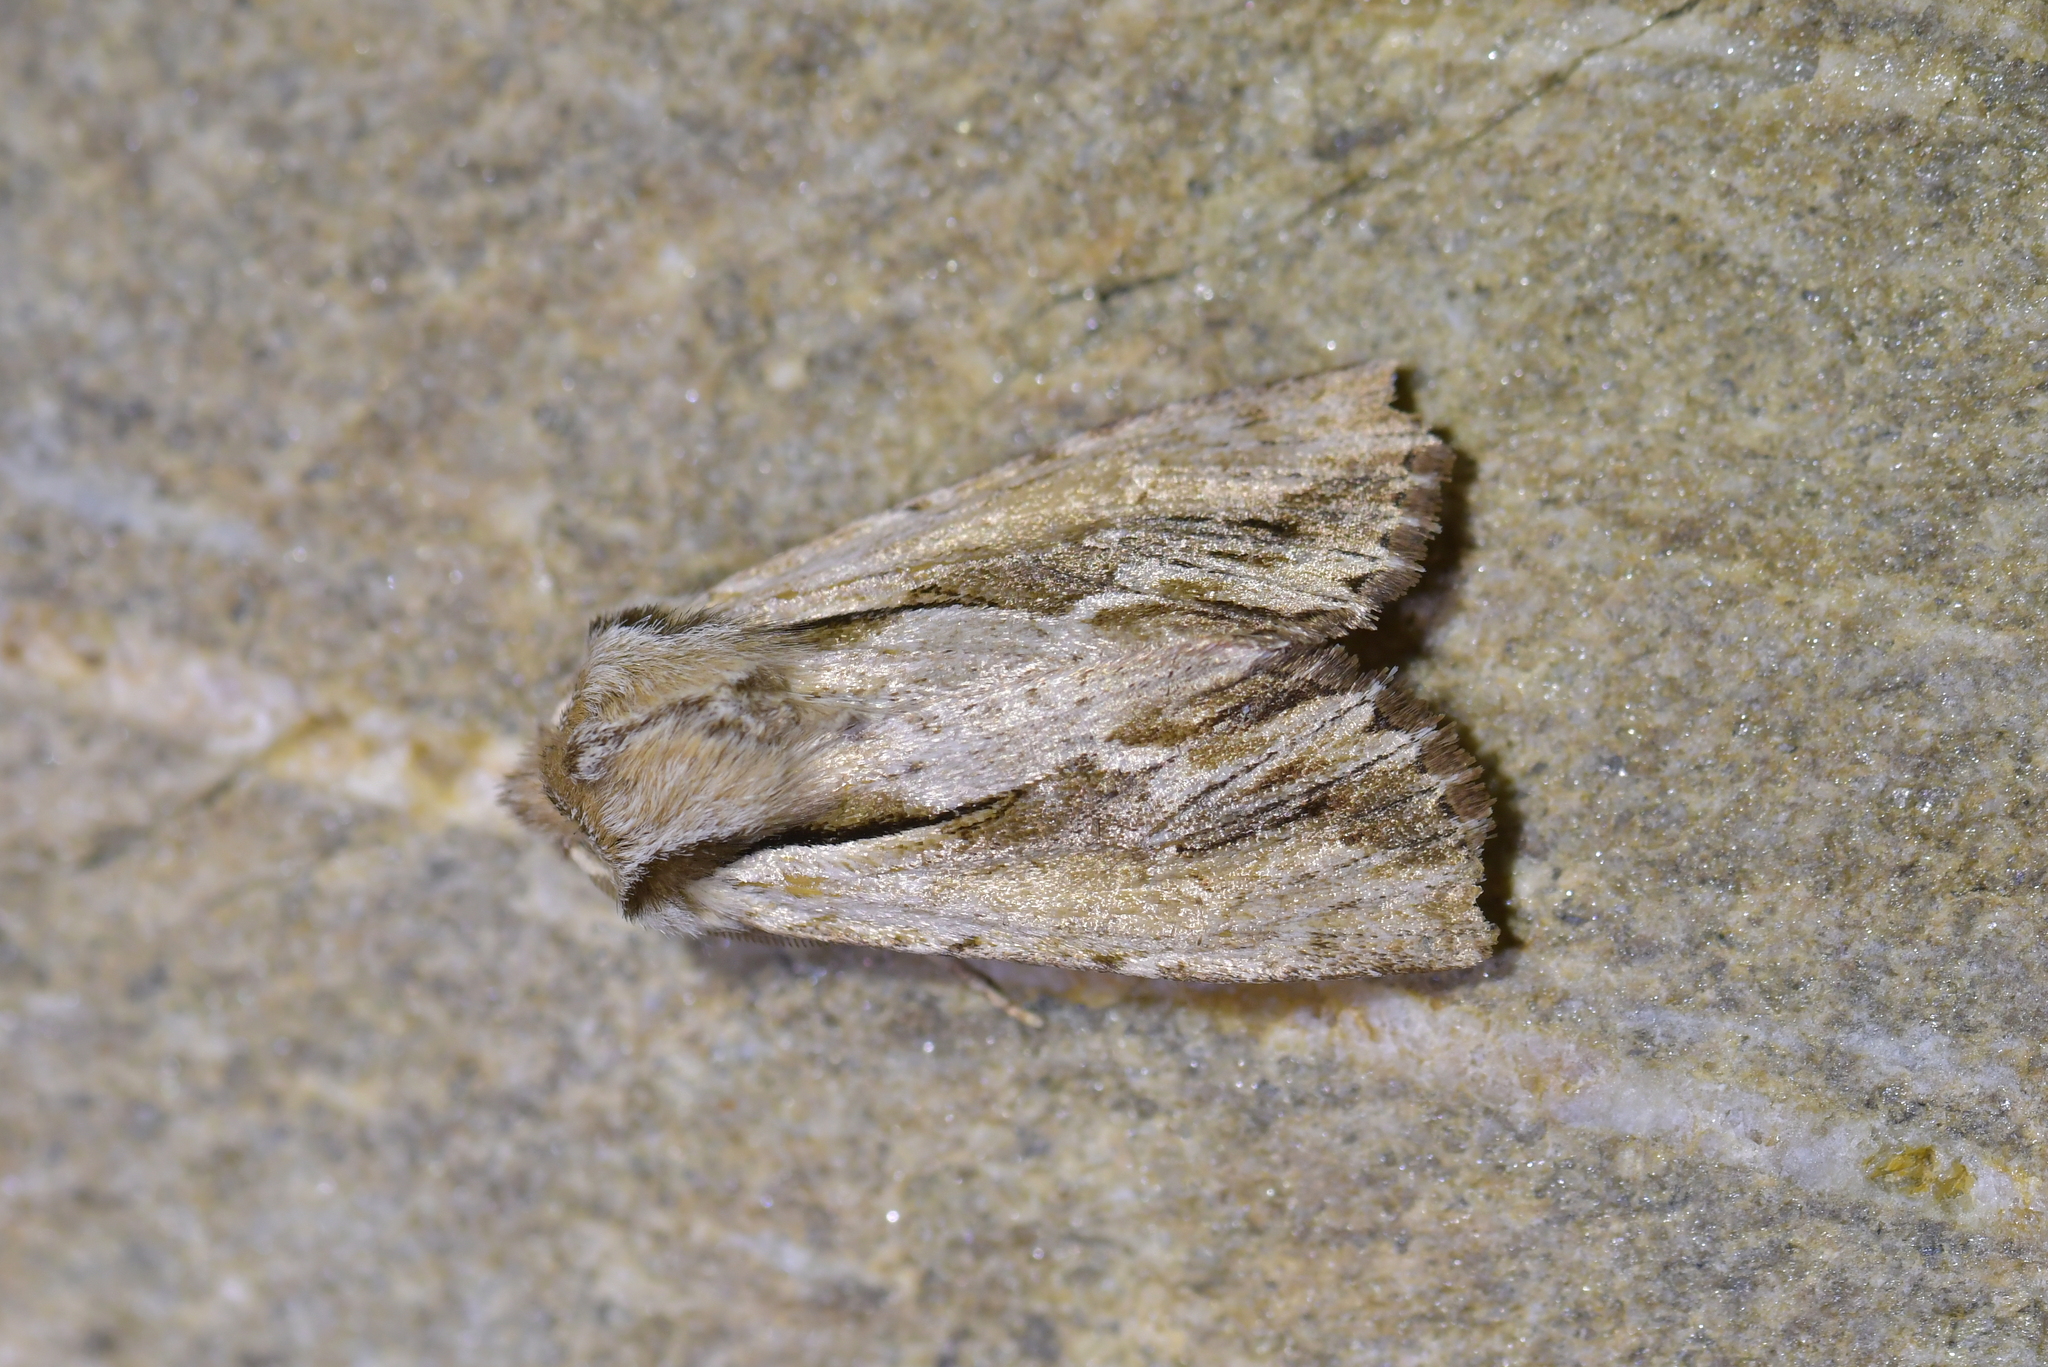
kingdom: Animalia
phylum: Arthropoda
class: Insecta
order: Lepidoptera
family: Noctuidae
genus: Ichneutica
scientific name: Ichneutica
